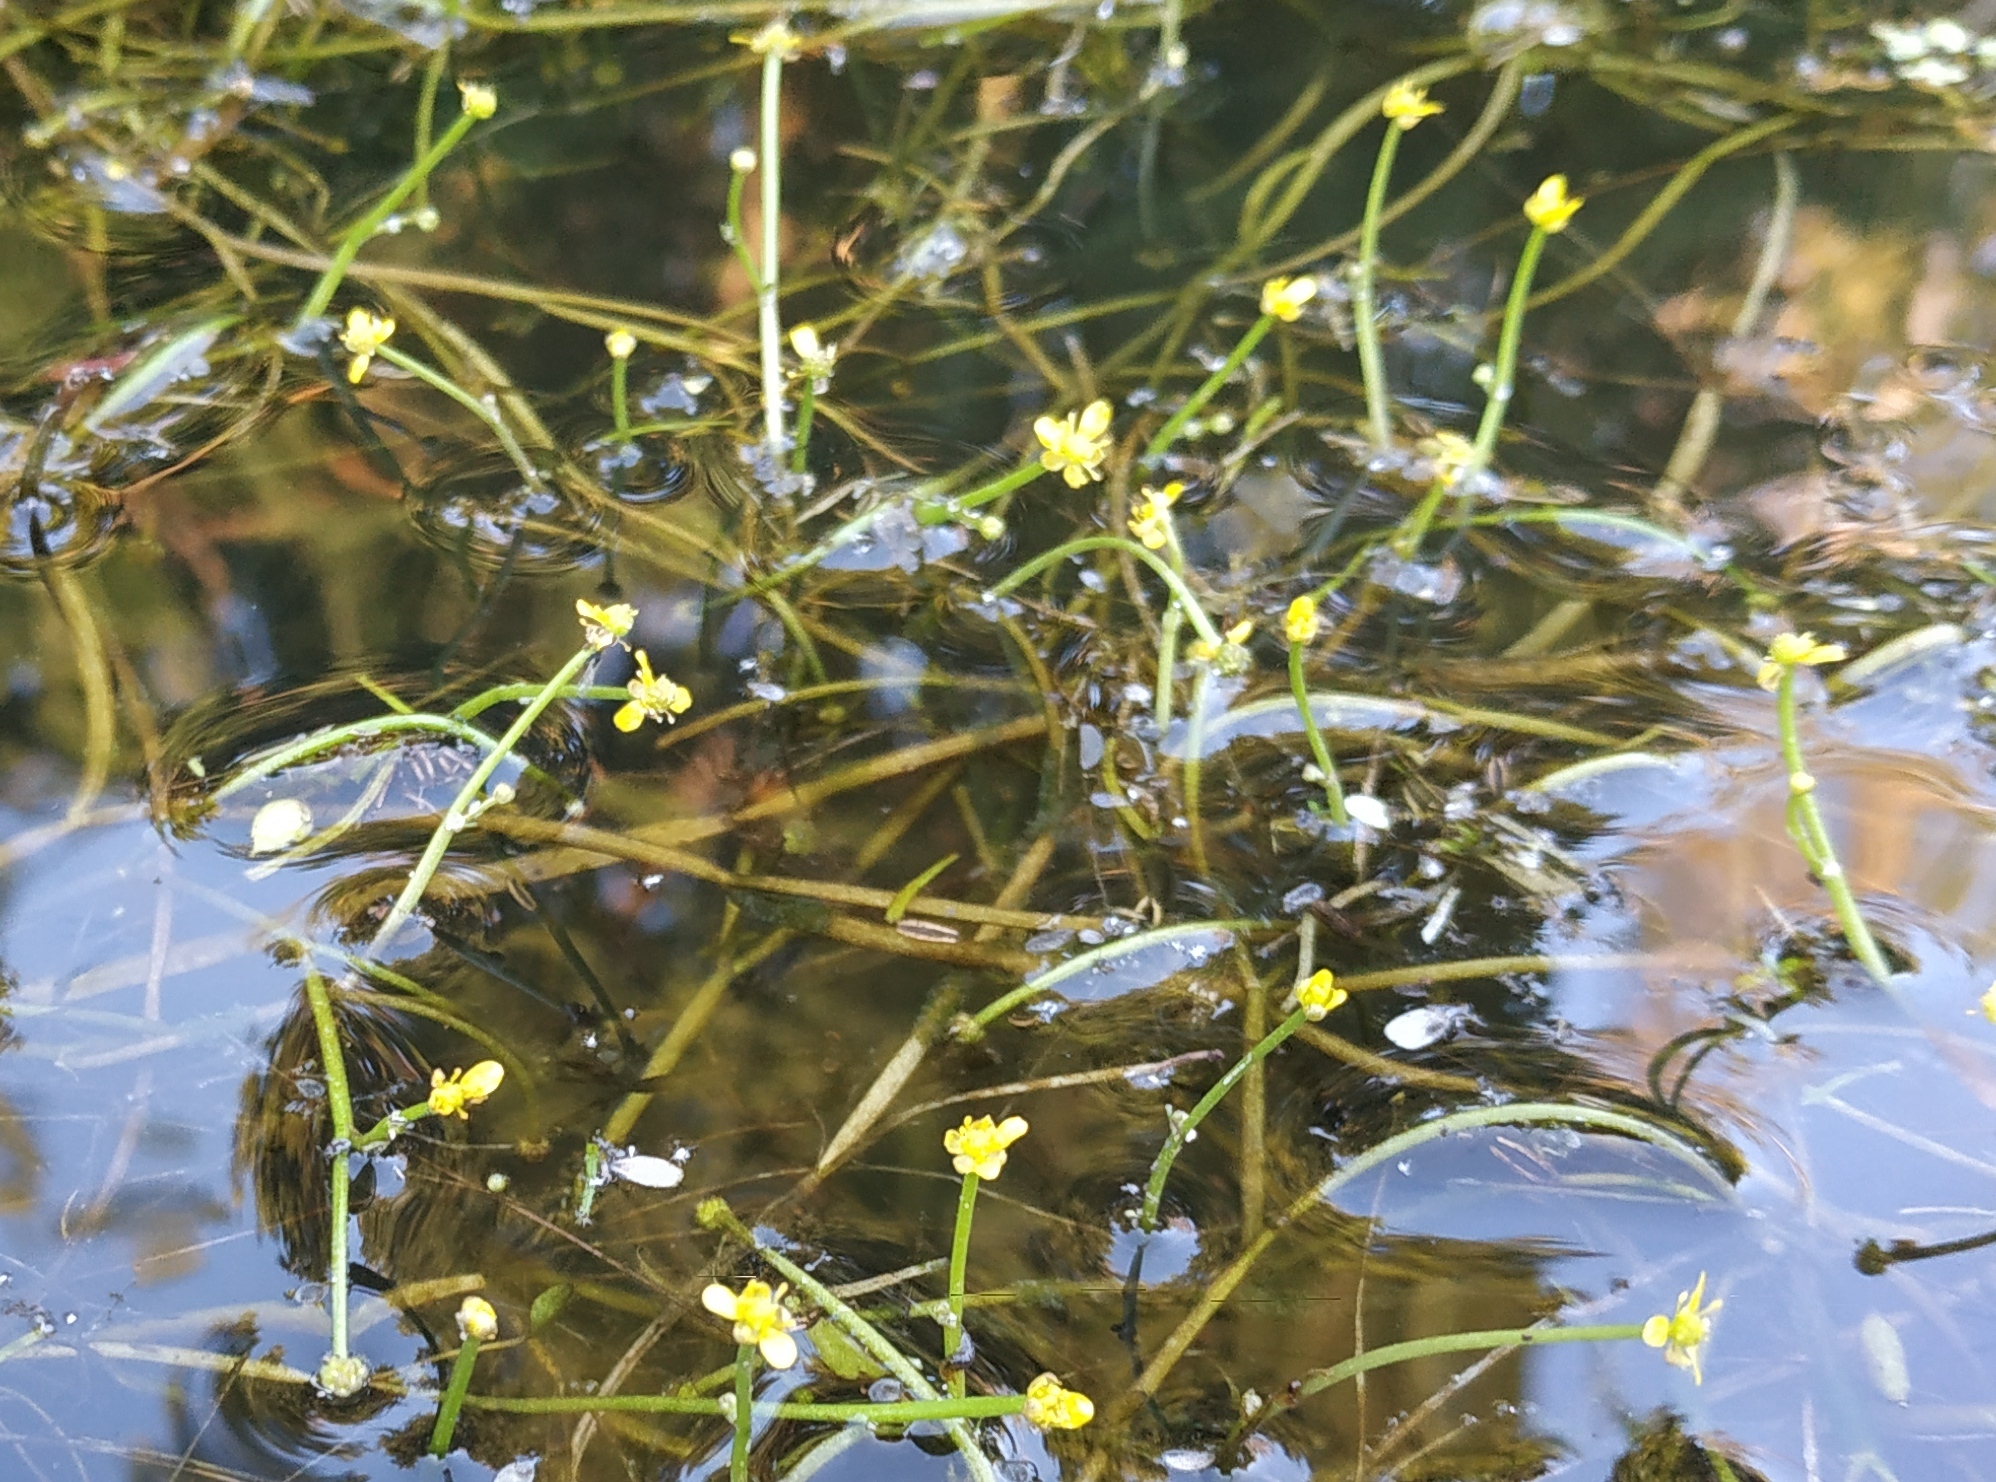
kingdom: Plantae
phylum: Tracheophyta
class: Magnoliopsida
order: Ranunculales
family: Ranunculaceae
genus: Ranunculus
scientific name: Ranunculus polyphyllus
